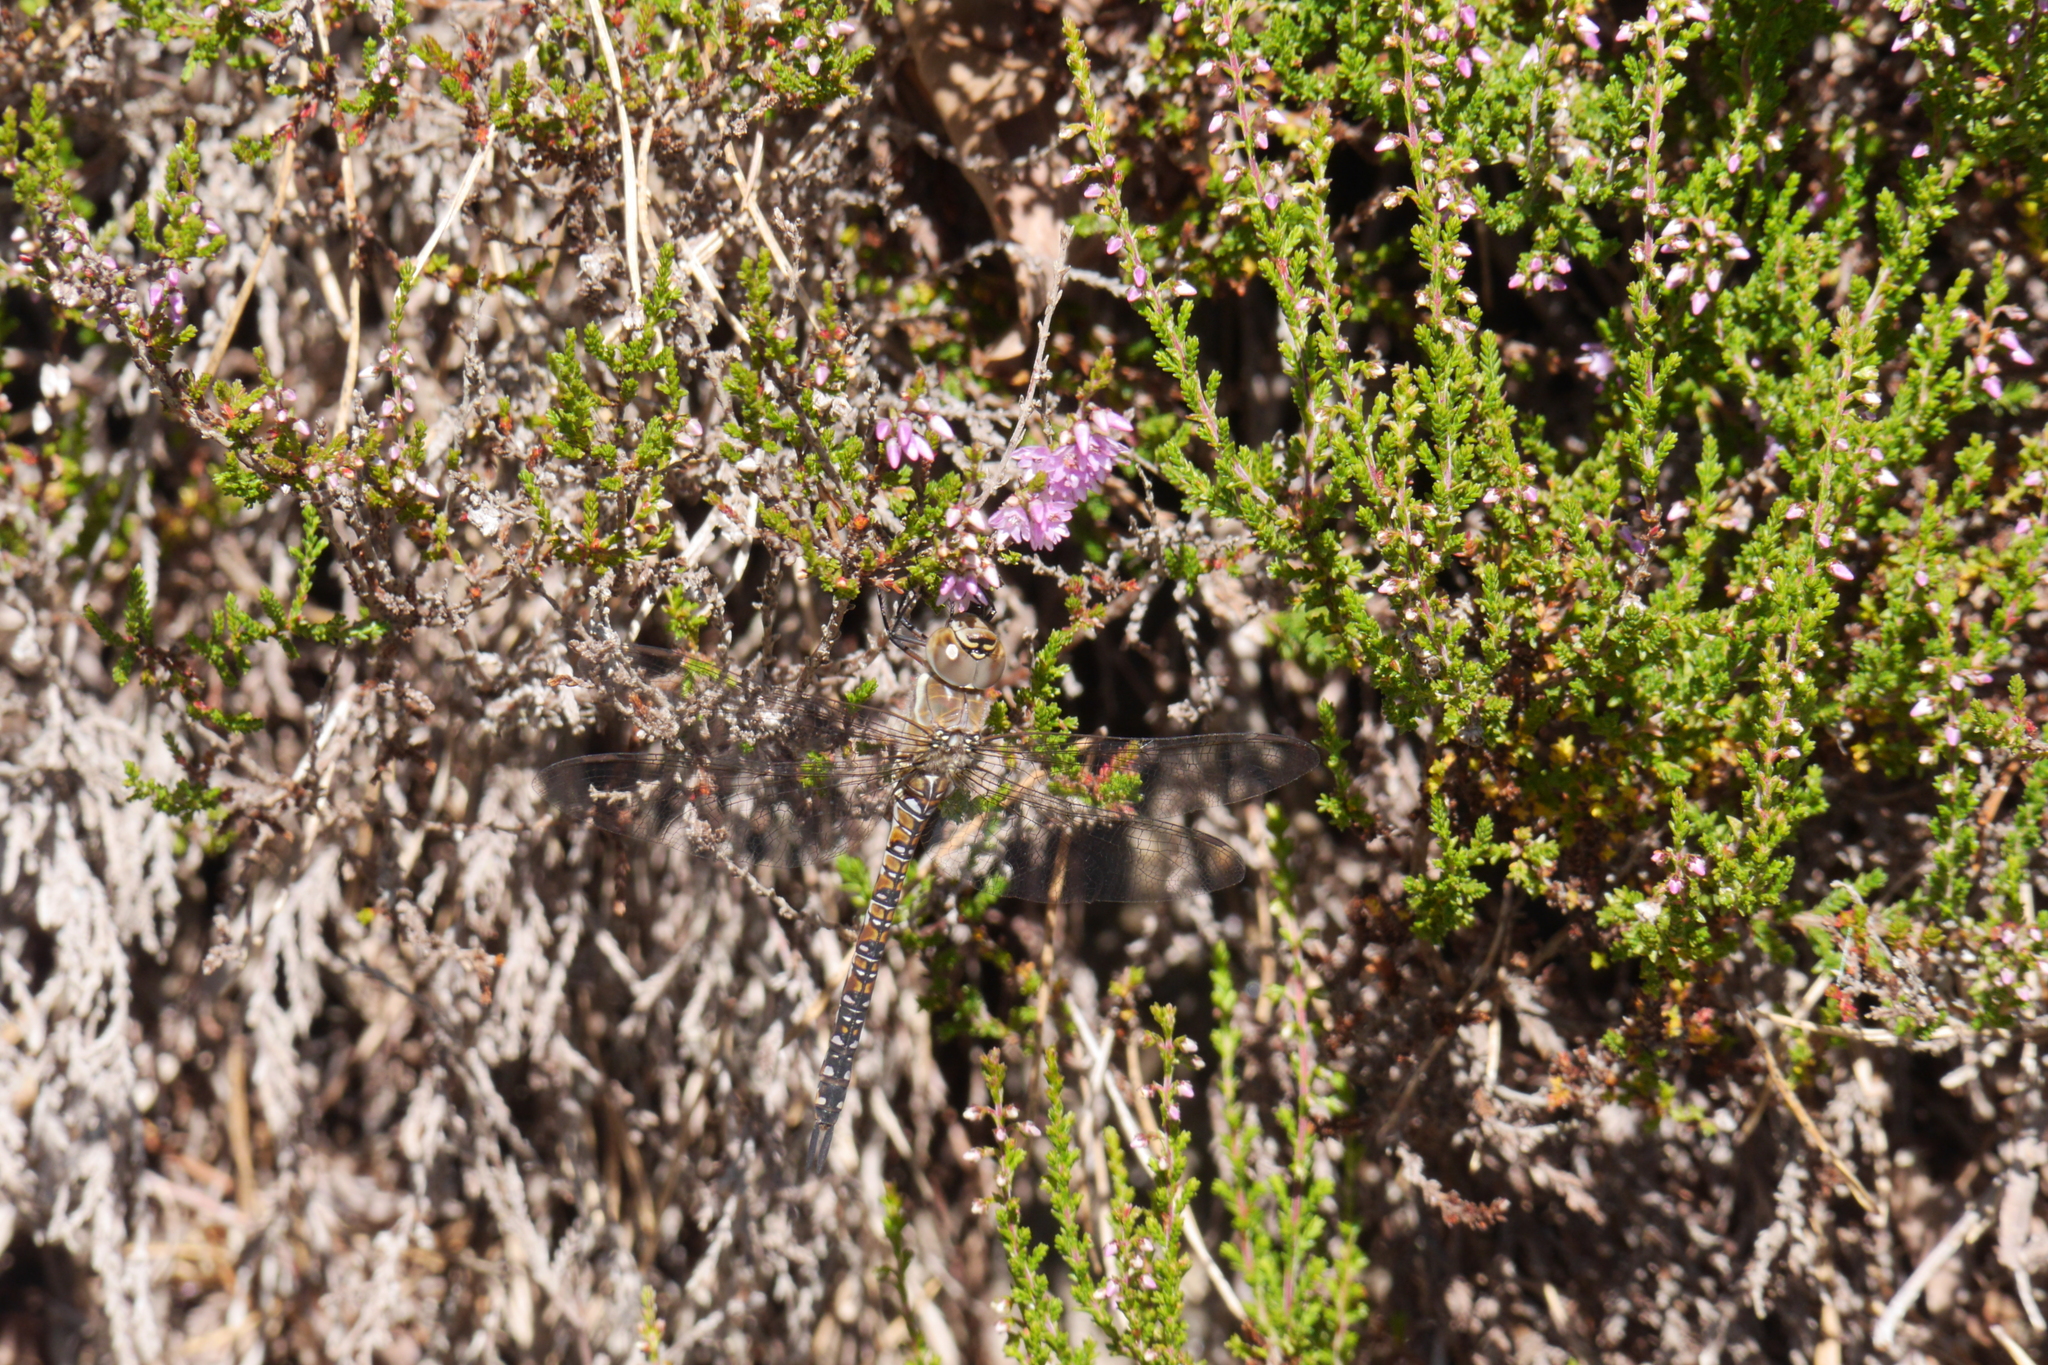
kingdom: Animalia
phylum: Arthropoda
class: Insecta
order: Odonata
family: Aeshnidae
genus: Aeshna
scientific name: Aeshna mixta
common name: Migrant hawker
